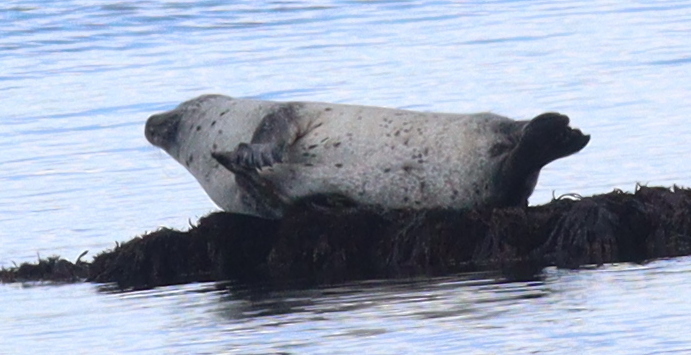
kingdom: Animalia
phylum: Chordata
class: Mammalia
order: Carnivora
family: Phocidae
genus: Phoca
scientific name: Phoca vitulina
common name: Harbor seal
